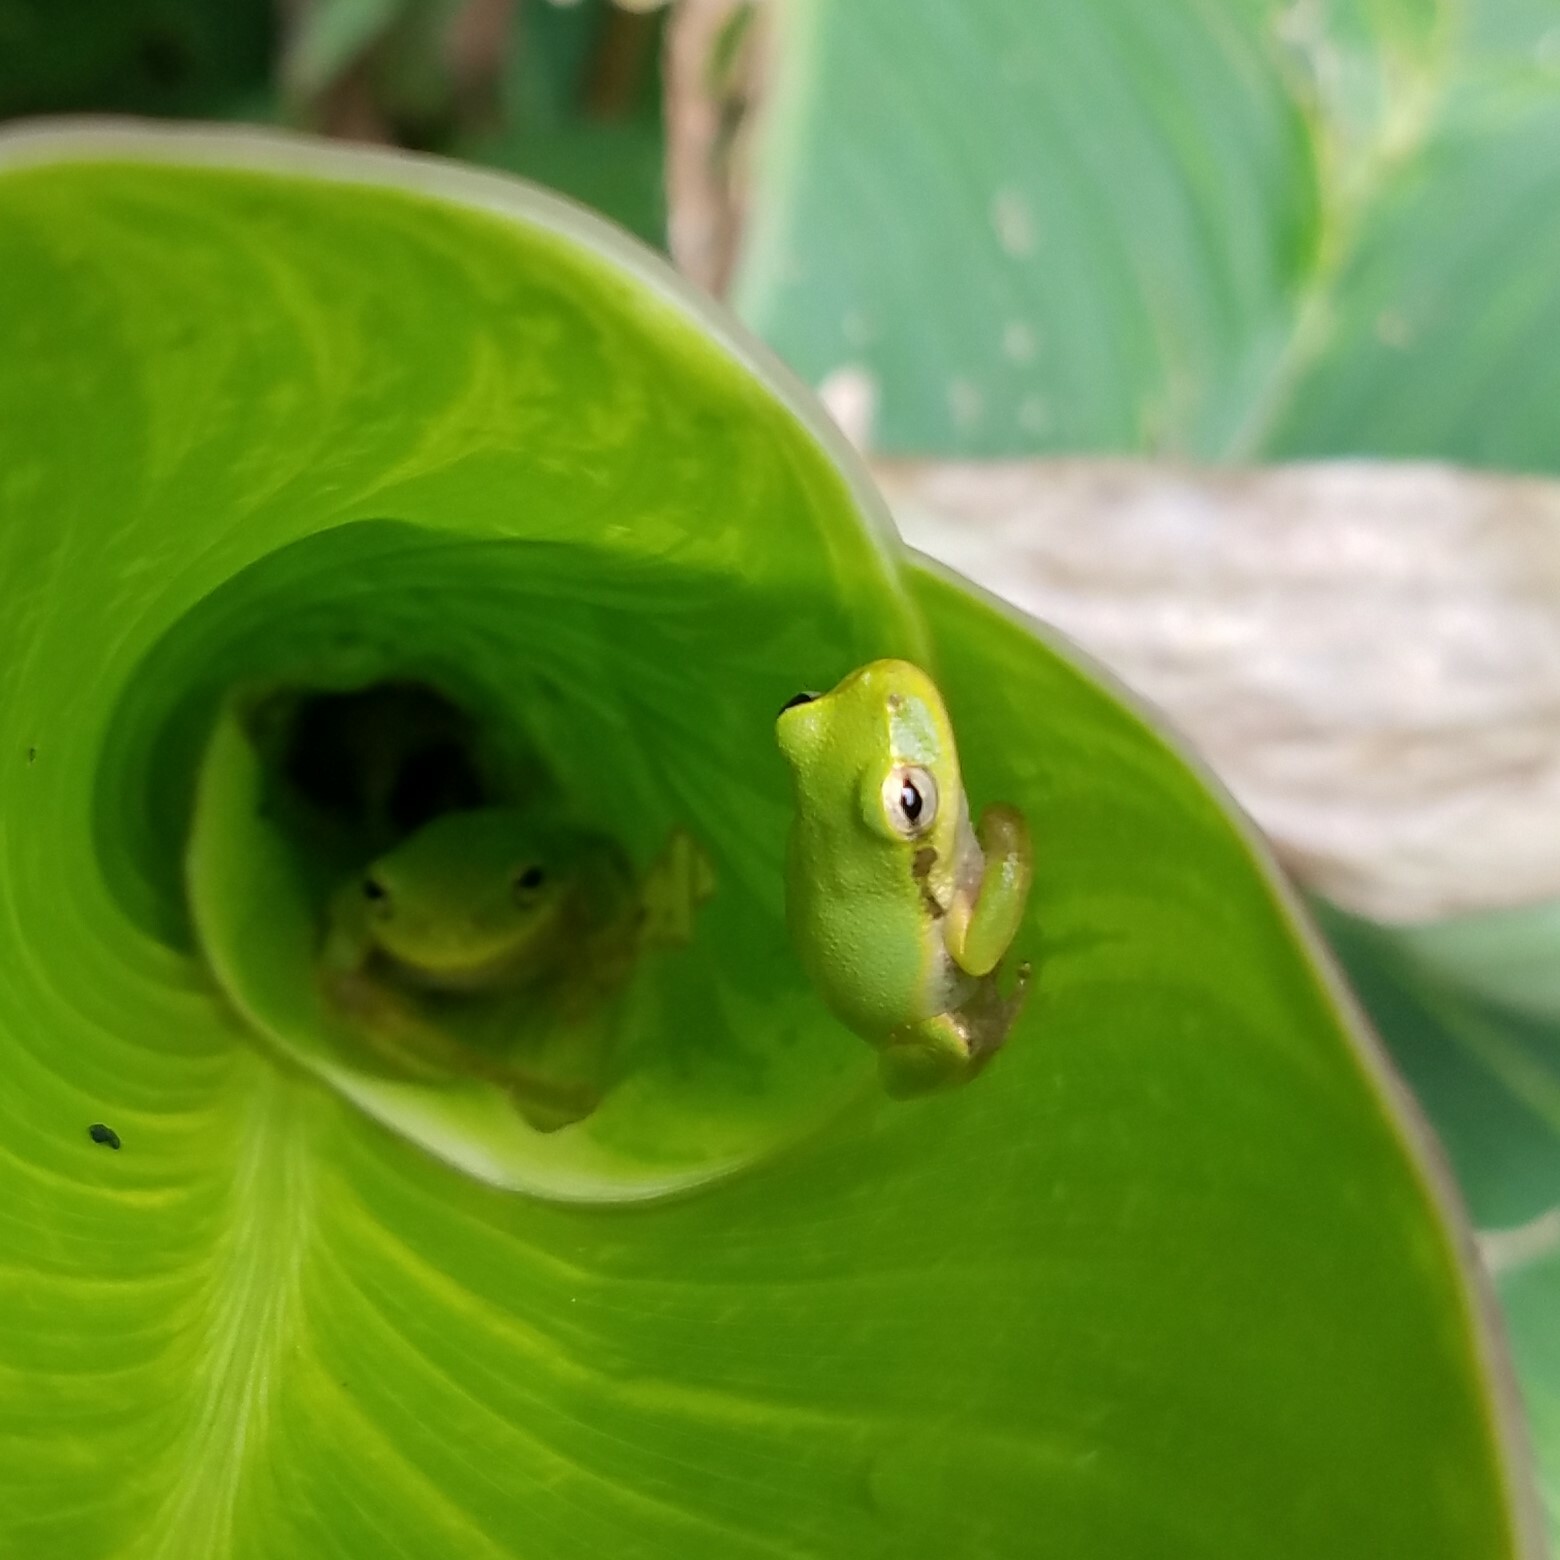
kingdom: Animalia
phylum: Chordata
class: Amphibia
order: Anura
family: Hylidae
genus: Dryophytes
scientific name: Dryophytes squirellus
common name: Squirrel treefrog
